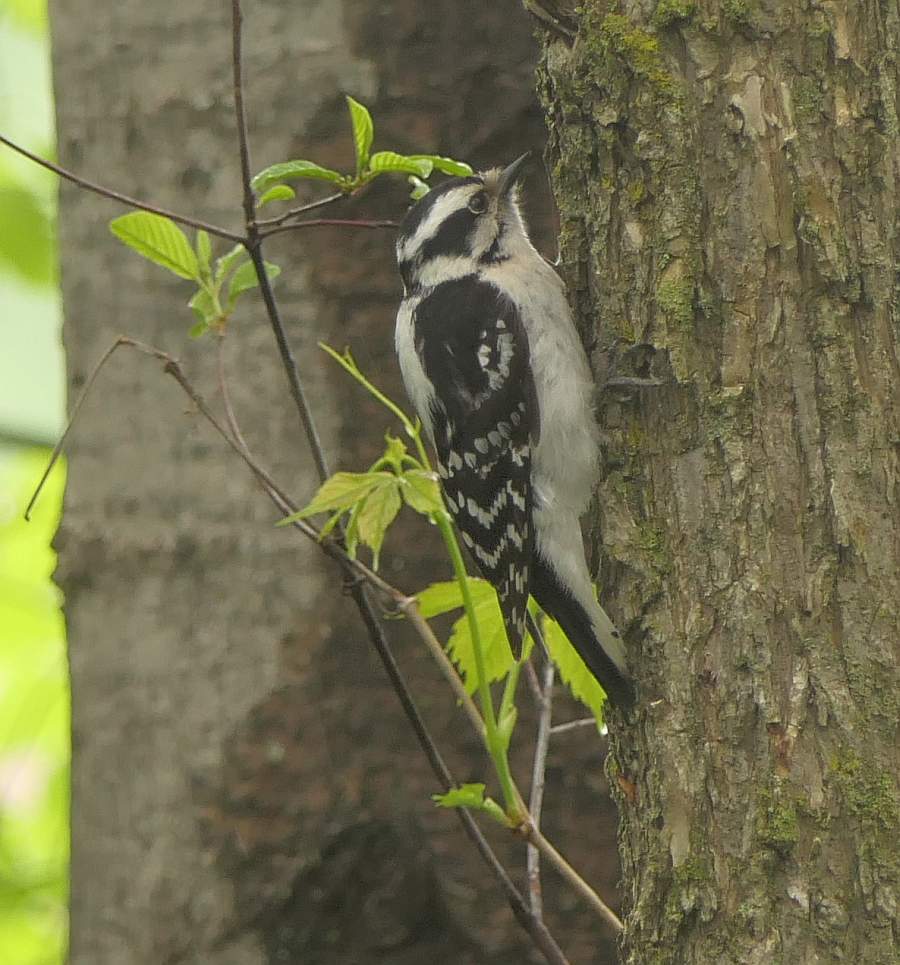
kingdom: Animalia
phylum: Chordata
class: Aves
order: Piciformes
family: Picidae
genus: Dryobates
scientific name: Dryobates pubescens
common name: Downy woodpecker
